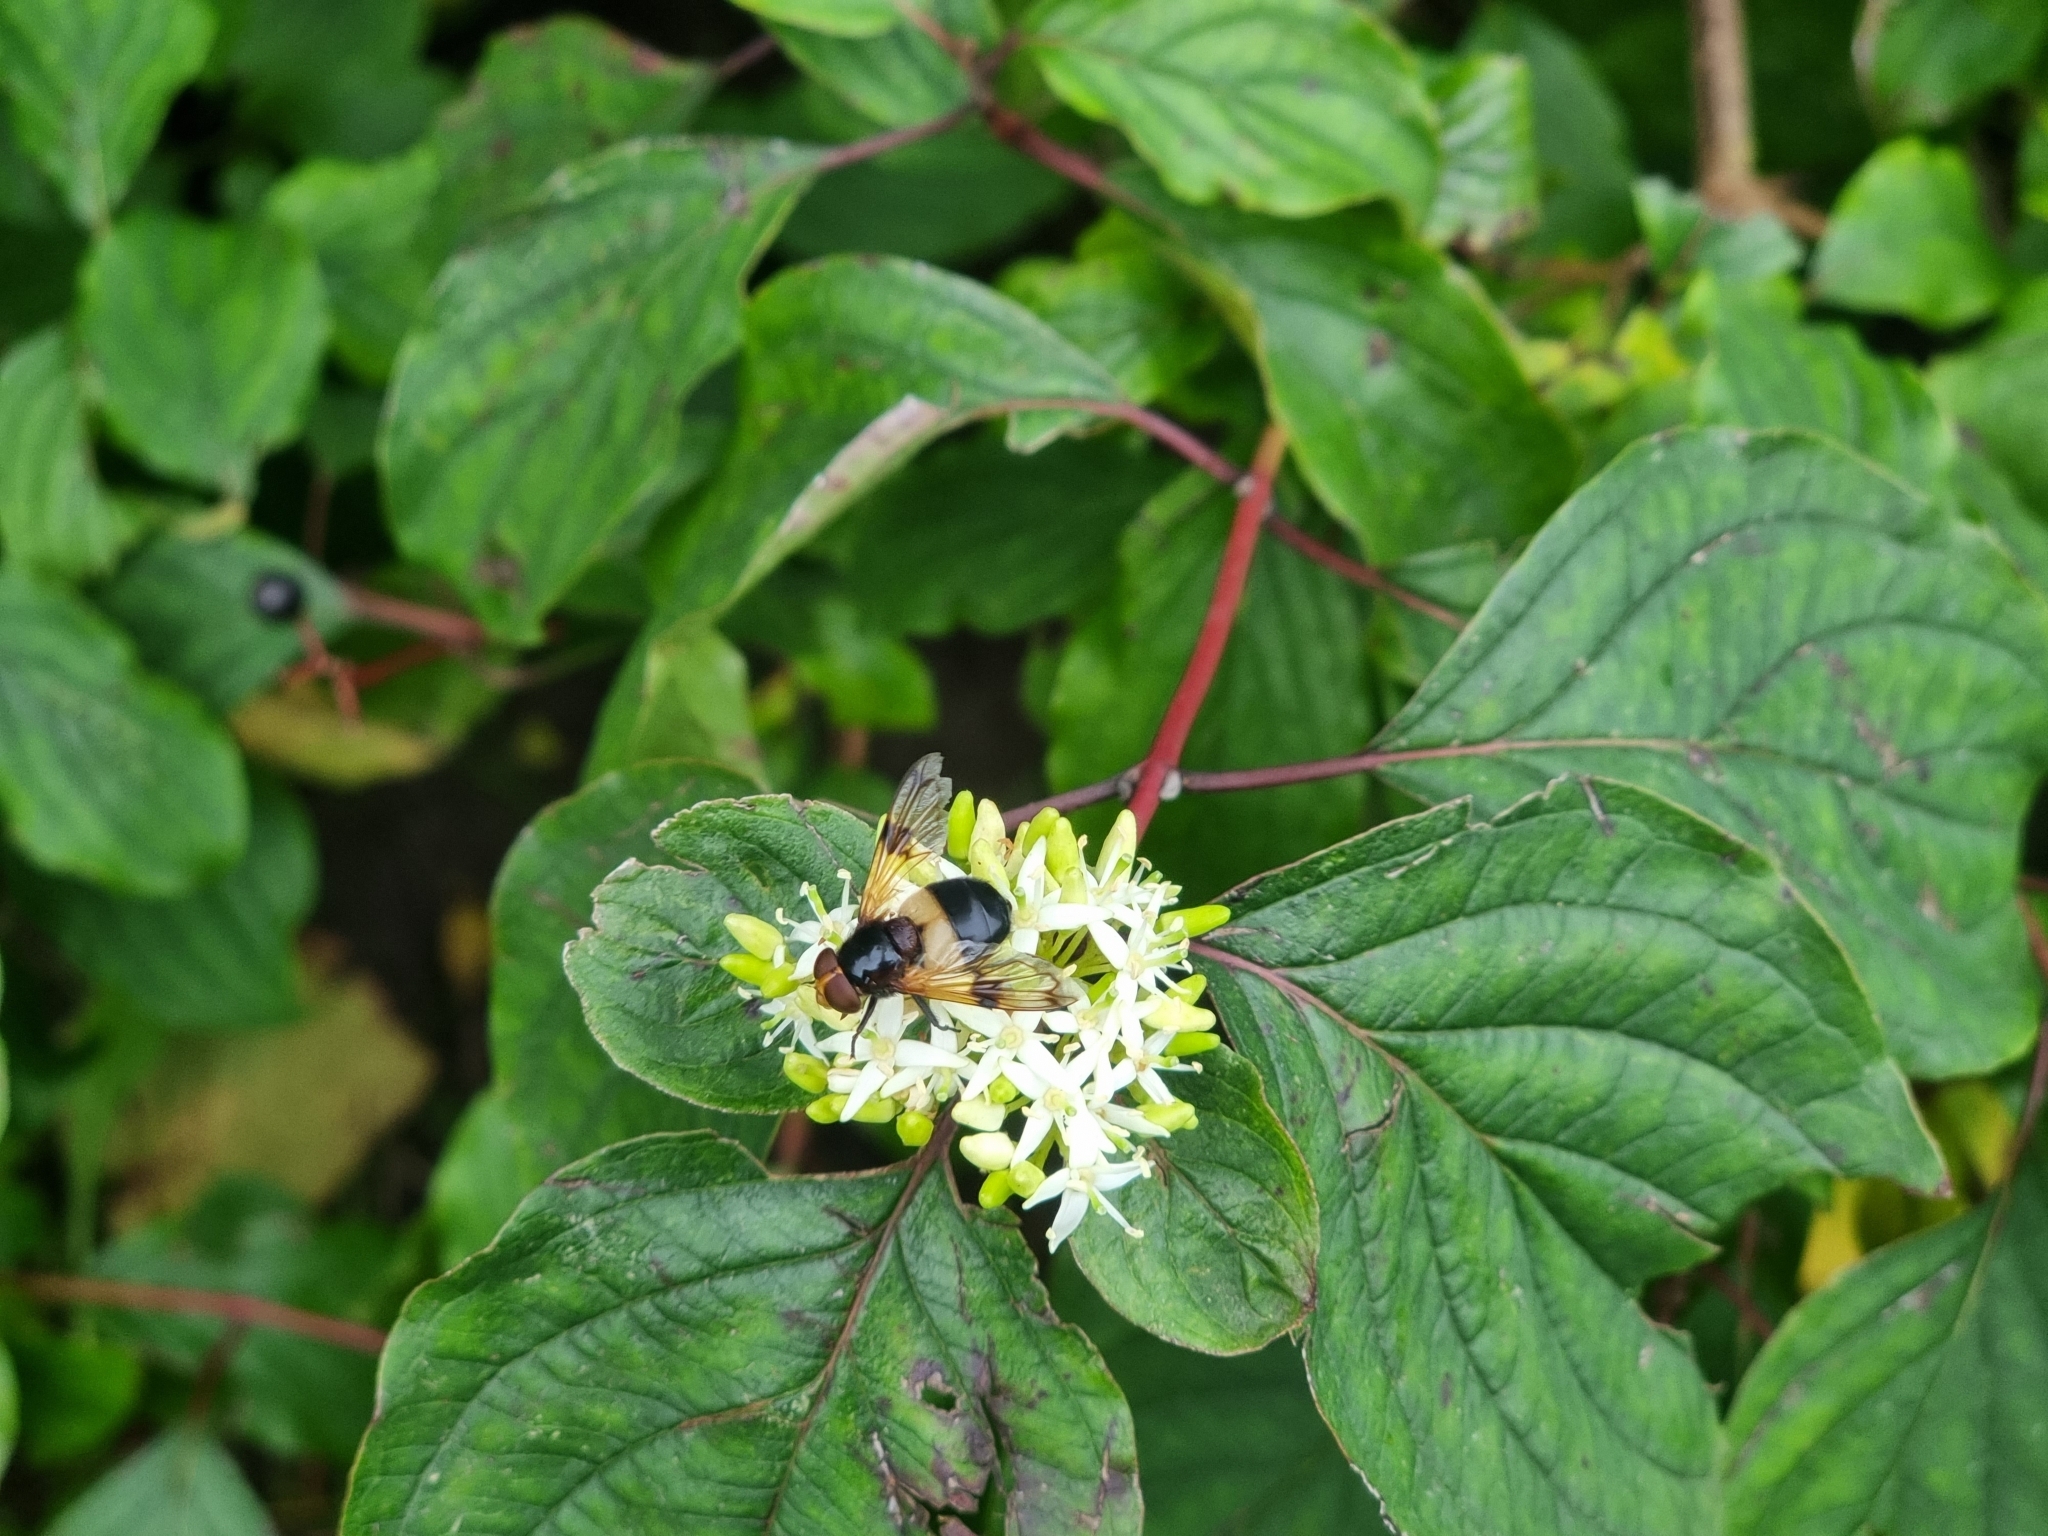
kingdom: Animalia
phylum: Arthropoda
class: Insecta
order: Diptera
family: Syrphidae
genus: Volucella
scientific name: Volucella pellucens
